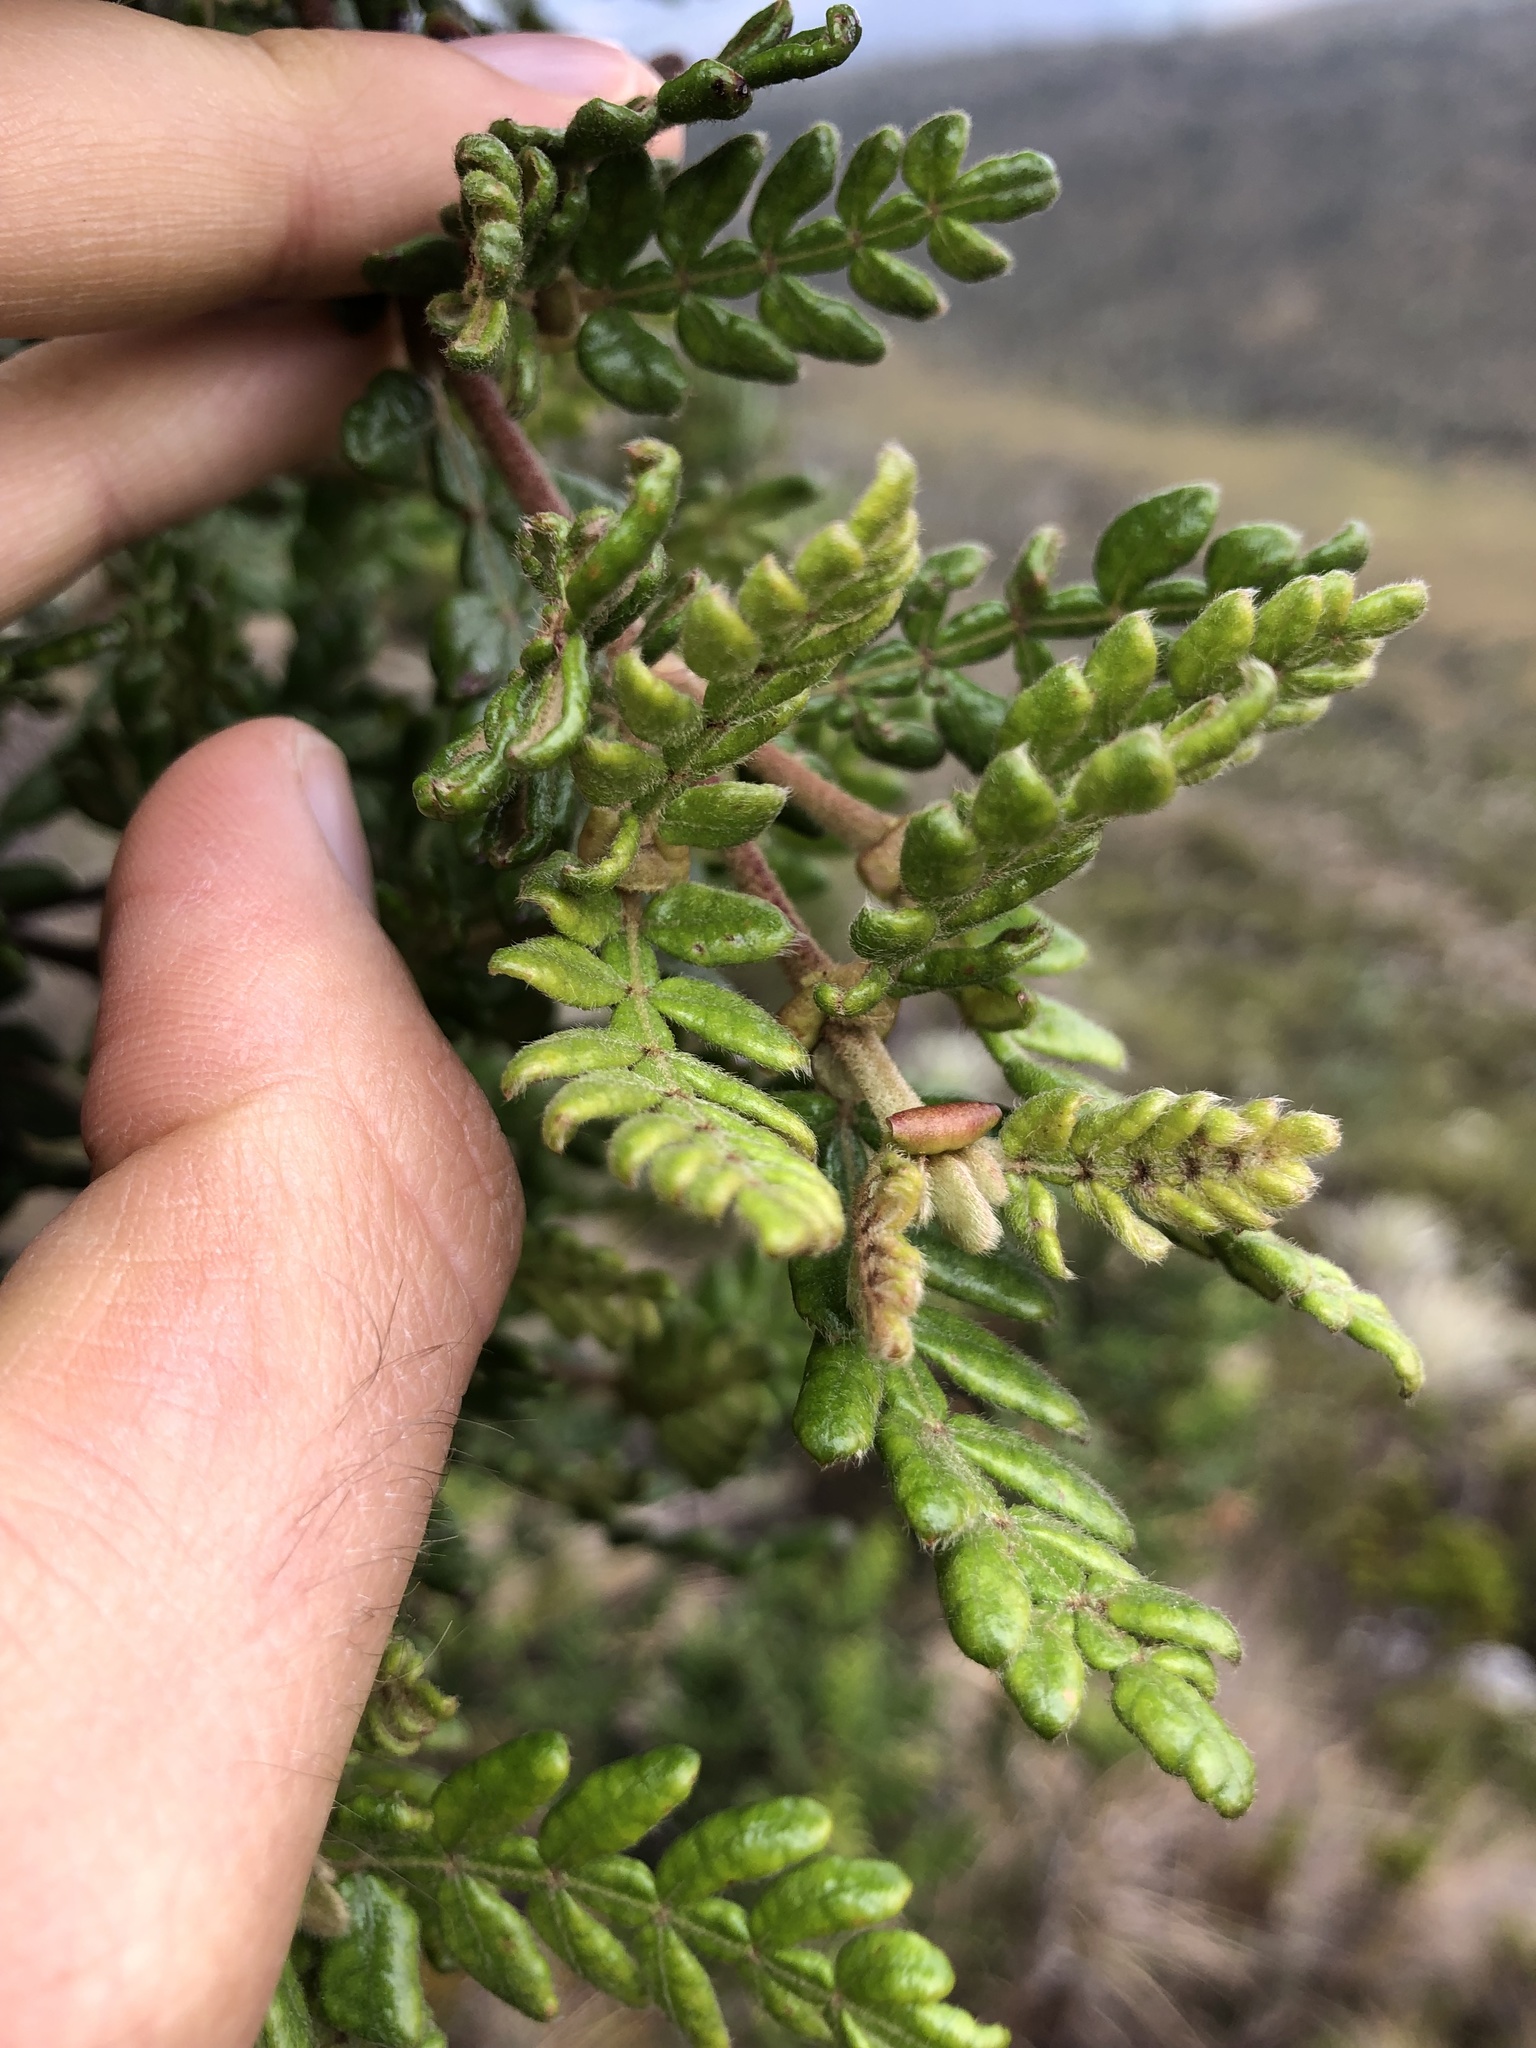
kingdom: Plantae
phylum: Tracheophyta
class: Magnoliopsida
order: Oxalidales
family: Cunoniaceae
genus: Weinmannia
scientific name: Weinmannia tomentosa
